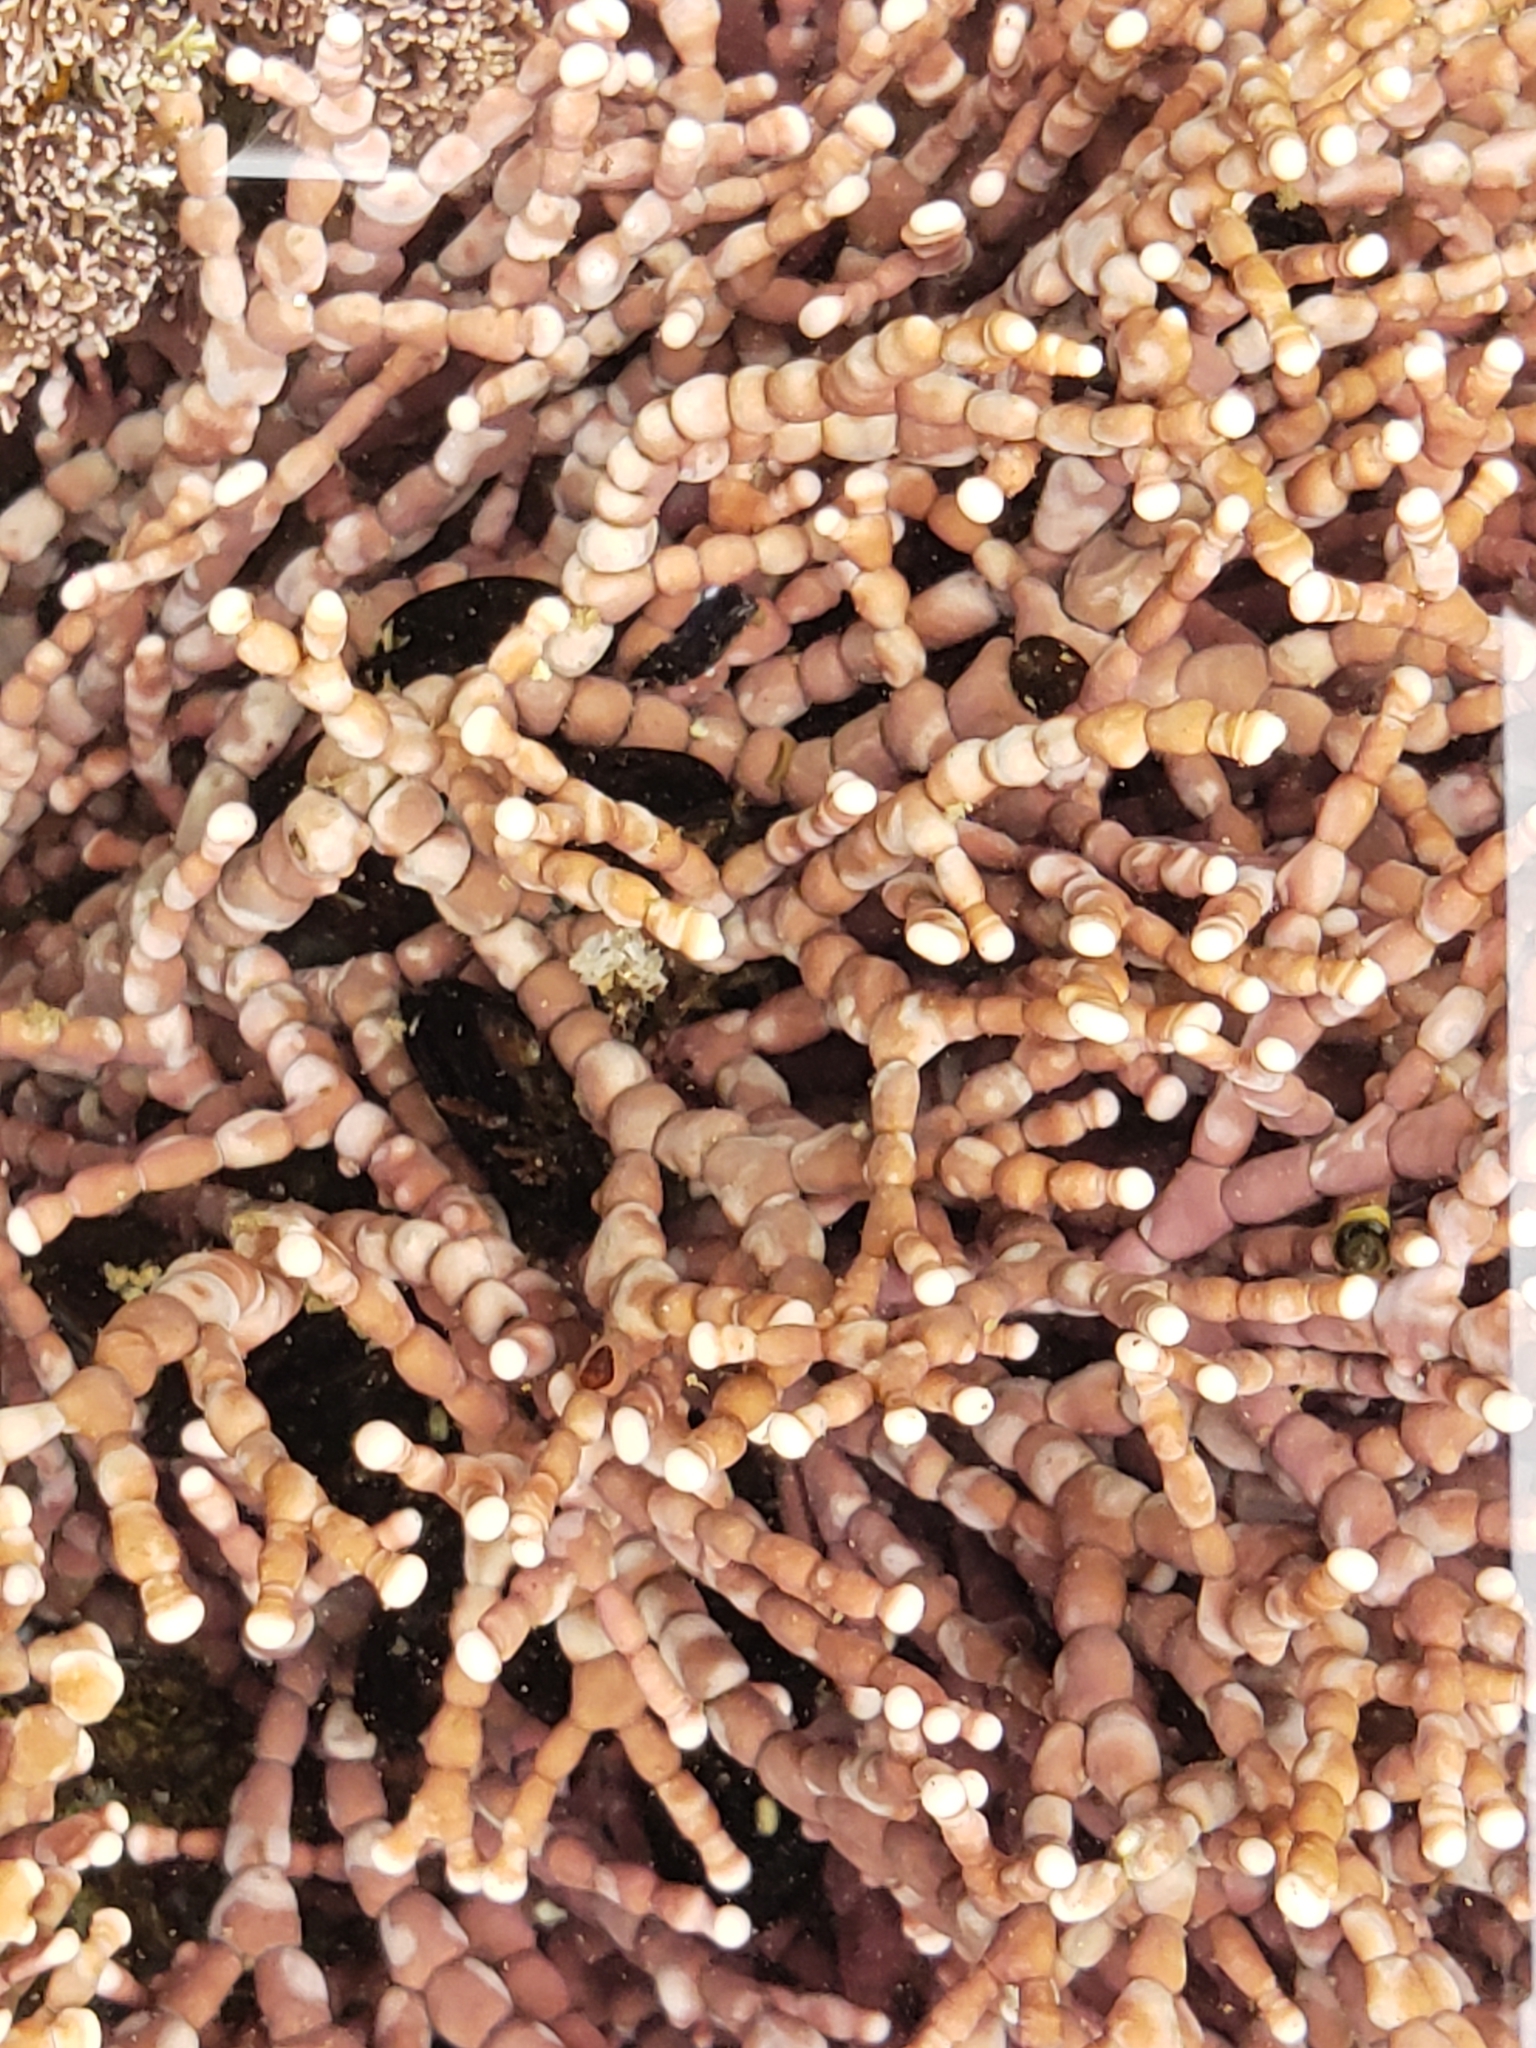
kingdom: Plantae
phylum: Rhodophyta
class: Florideophyceae
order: Corallinales
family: Corallinaceae
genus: Calliarthron
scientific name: Calliarthron tuberculosum
